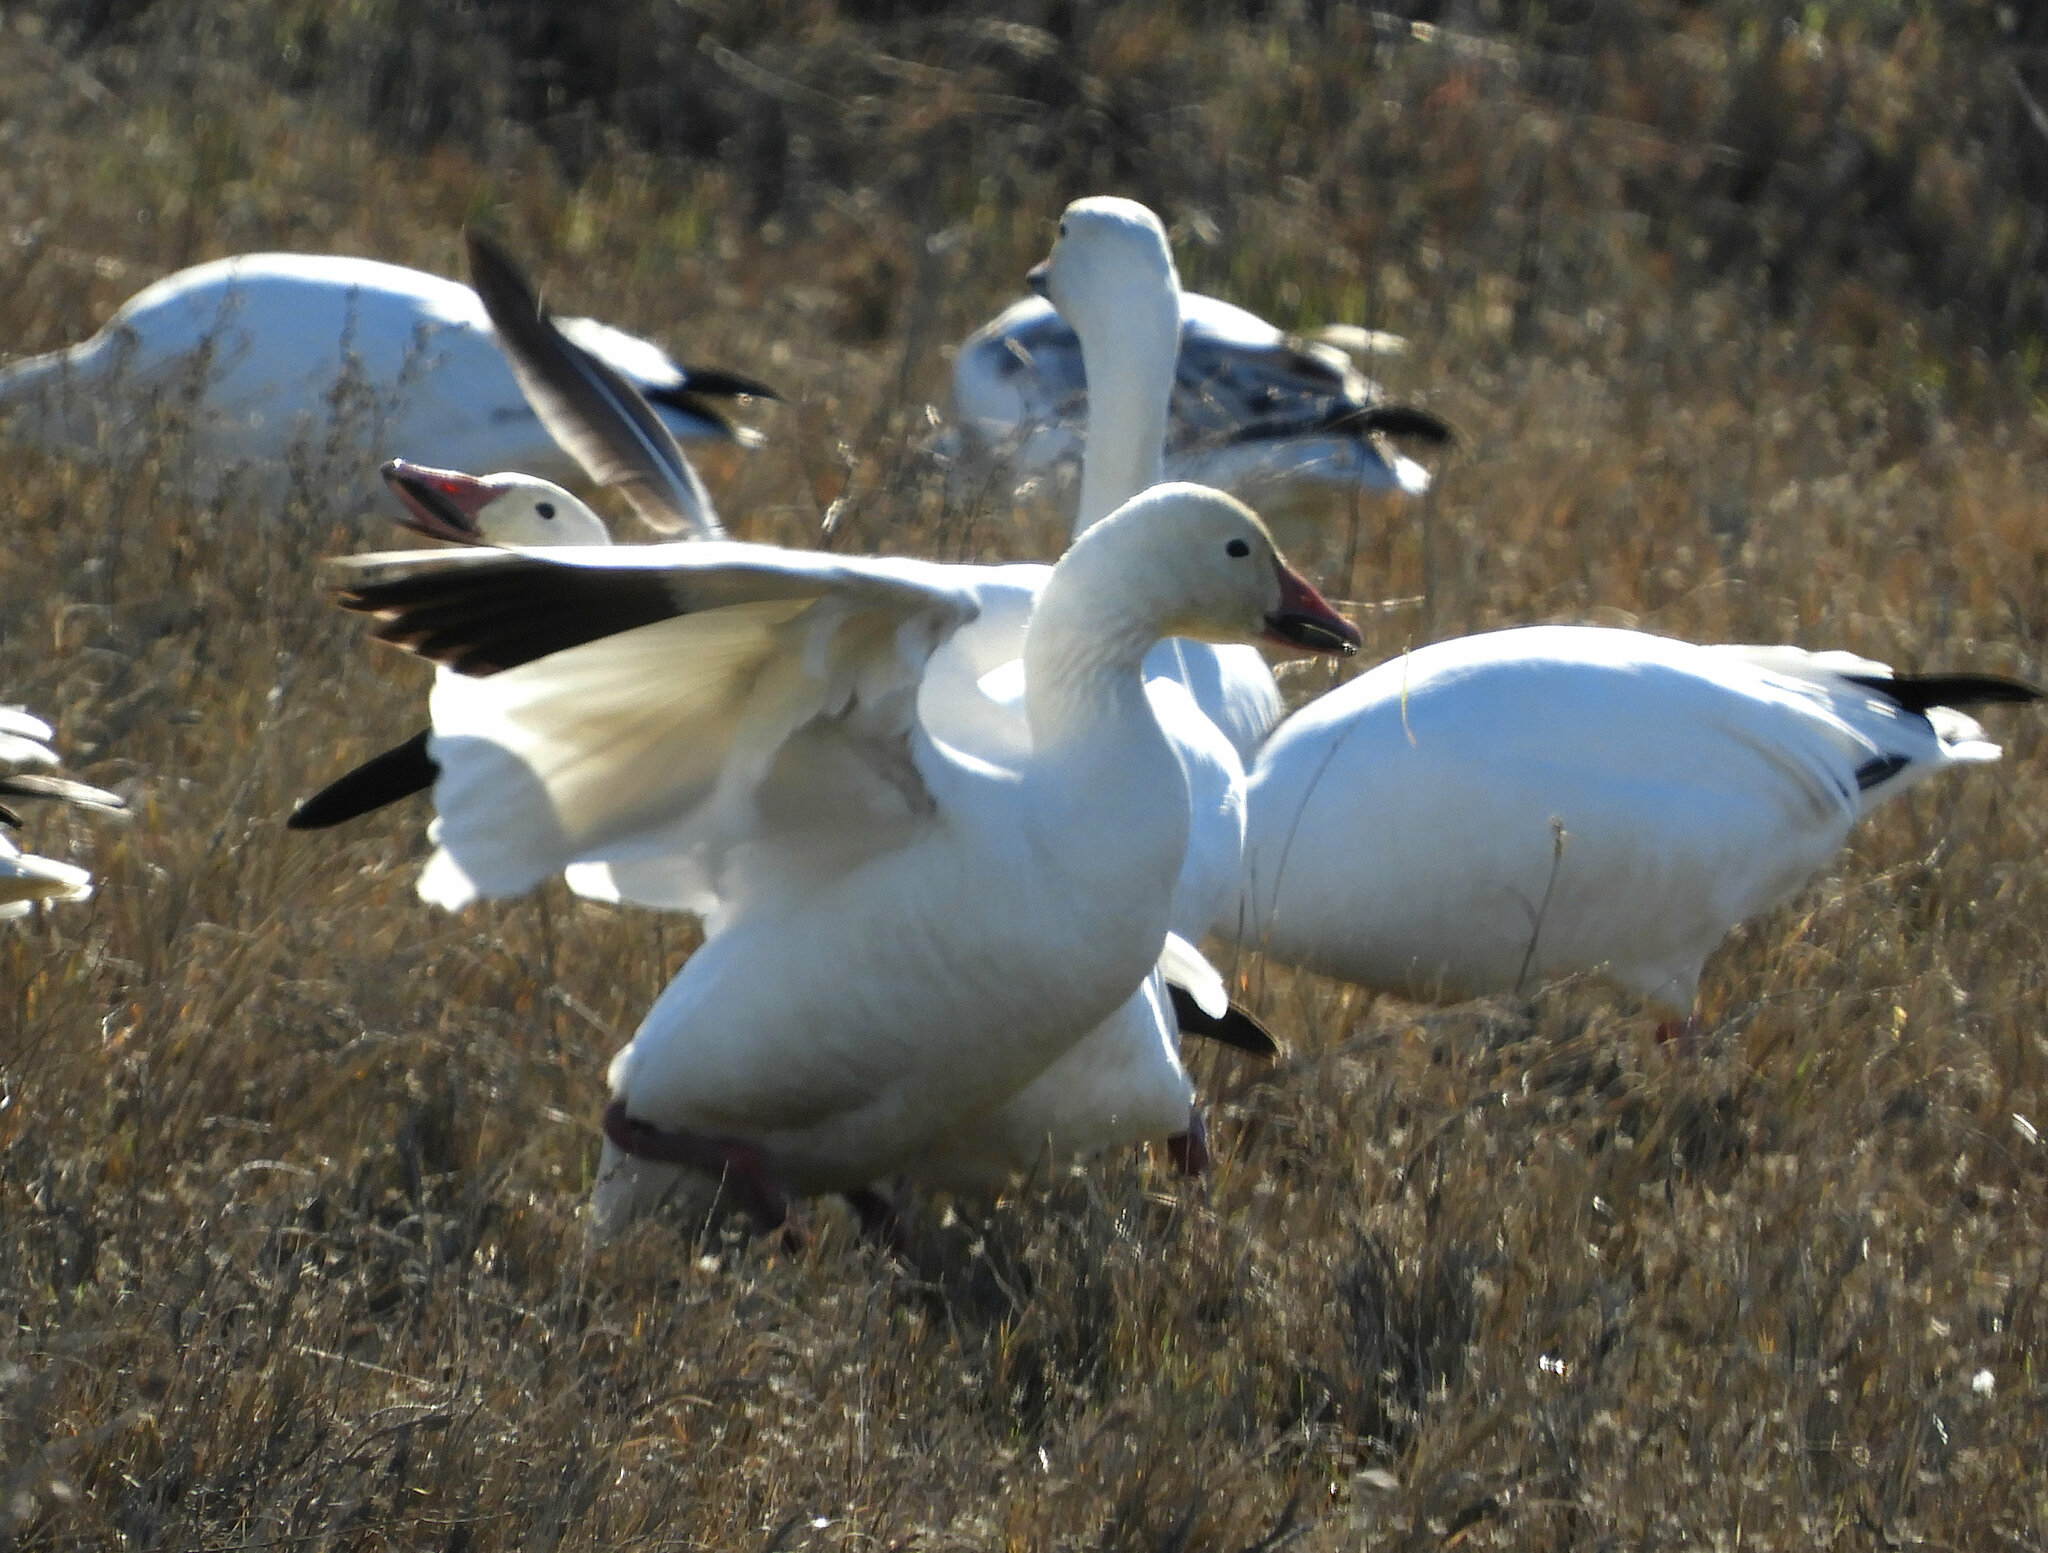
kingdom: Animalia
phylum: Chordata
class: Aves
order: Anseriformes
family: Anatidae
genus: Anser
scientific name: Anser caerulescens
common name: Snow goose
